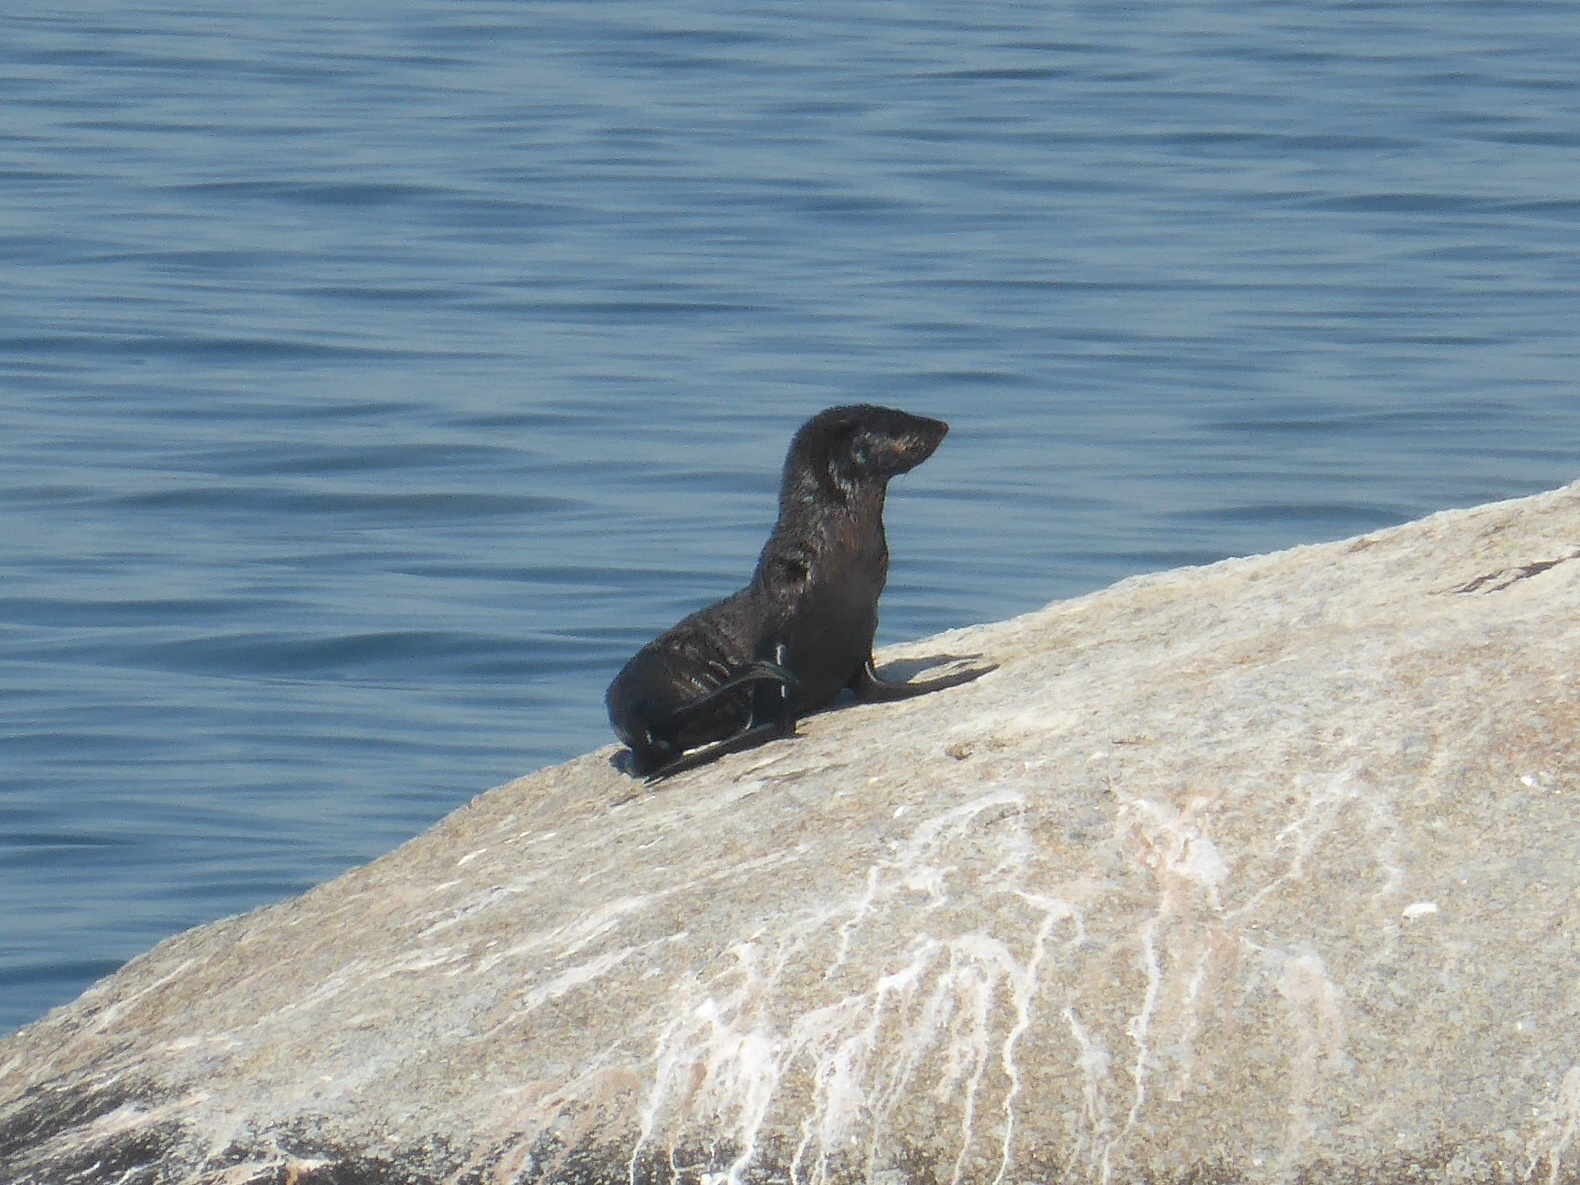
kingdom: Animalia
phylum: Chordata
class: Mammalia
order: Carnivora
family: Otariidae
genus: Arctocephalus
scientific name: Arctocephalus pusillus
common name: Brown fur seal
